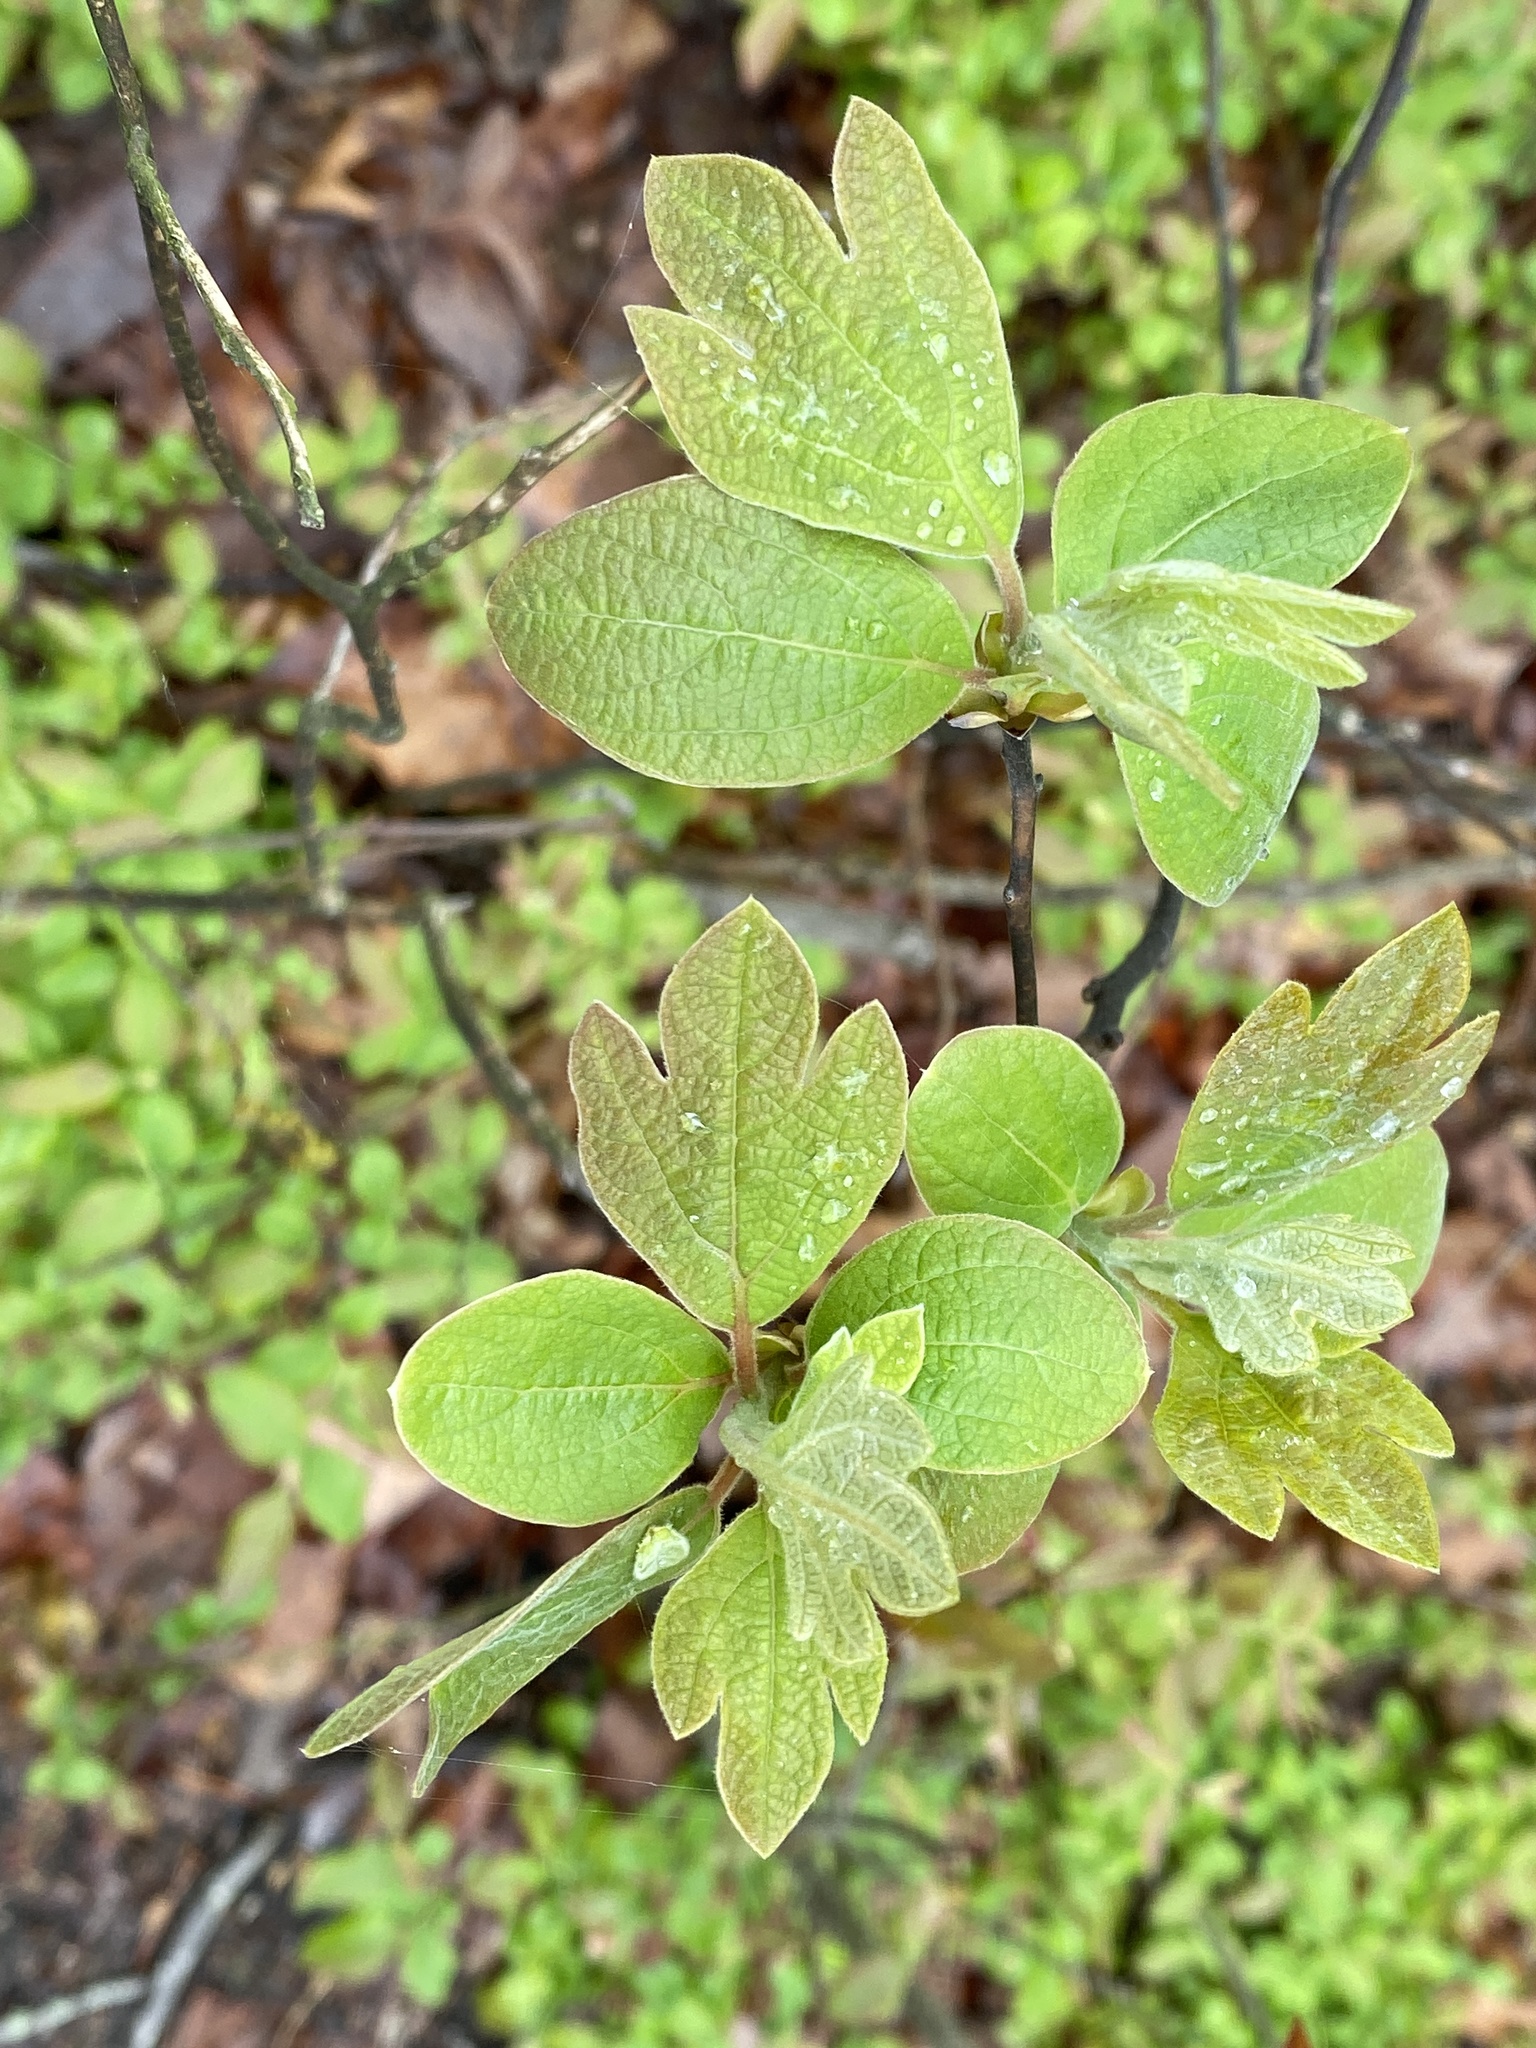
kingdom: Plantae
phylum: Tracheophyta
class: Magnoliopsida
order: Laurales
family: Lauraceae
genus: Sassafras
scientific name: Sassafras albidum
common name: Sassafras
